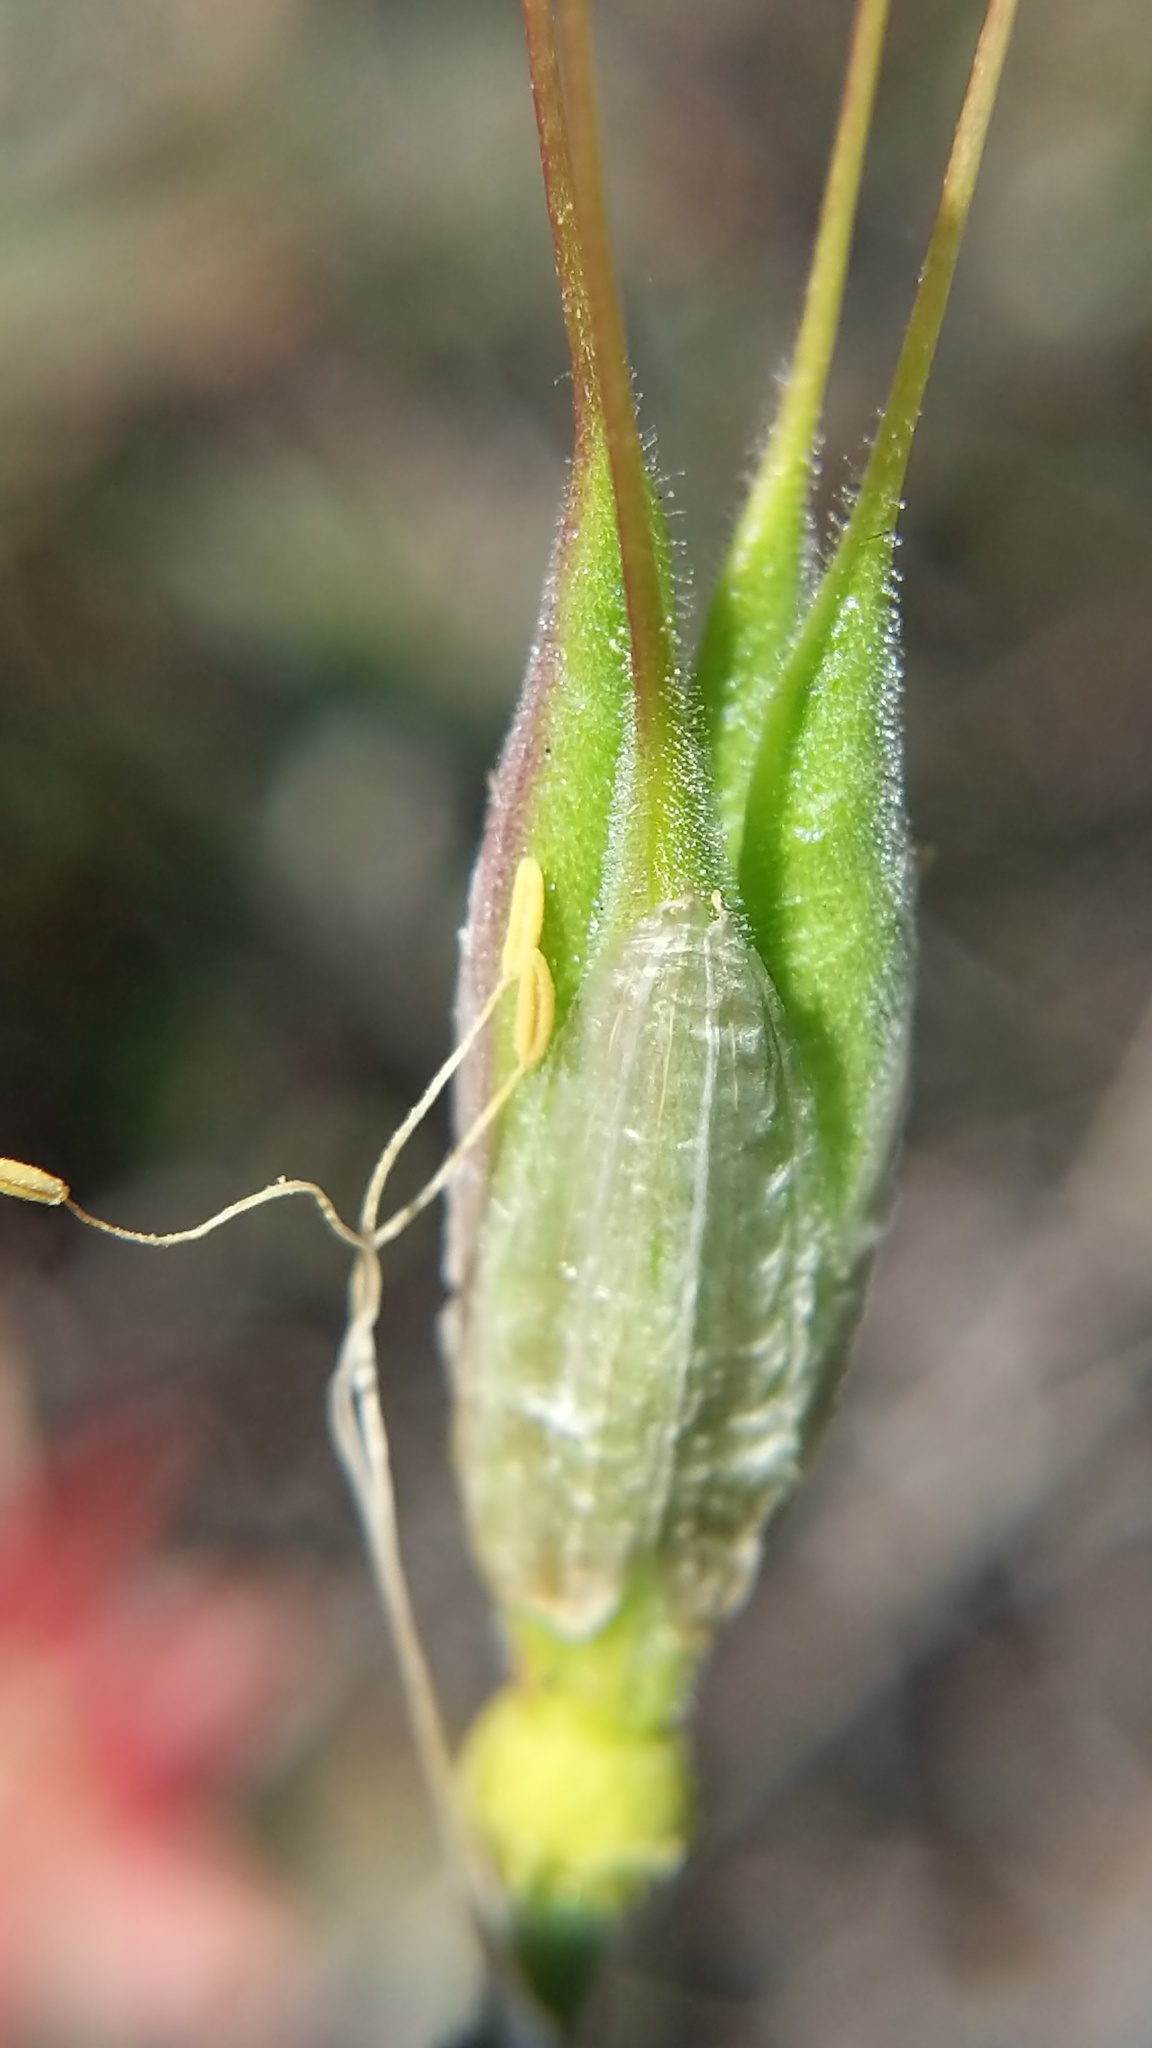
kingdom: Plantae
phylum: Tracheophyta
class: Magnoliopsida
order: Ranunculales
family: Ranunculaceae
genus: Aquilegia
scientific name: Aquilegia eximia
